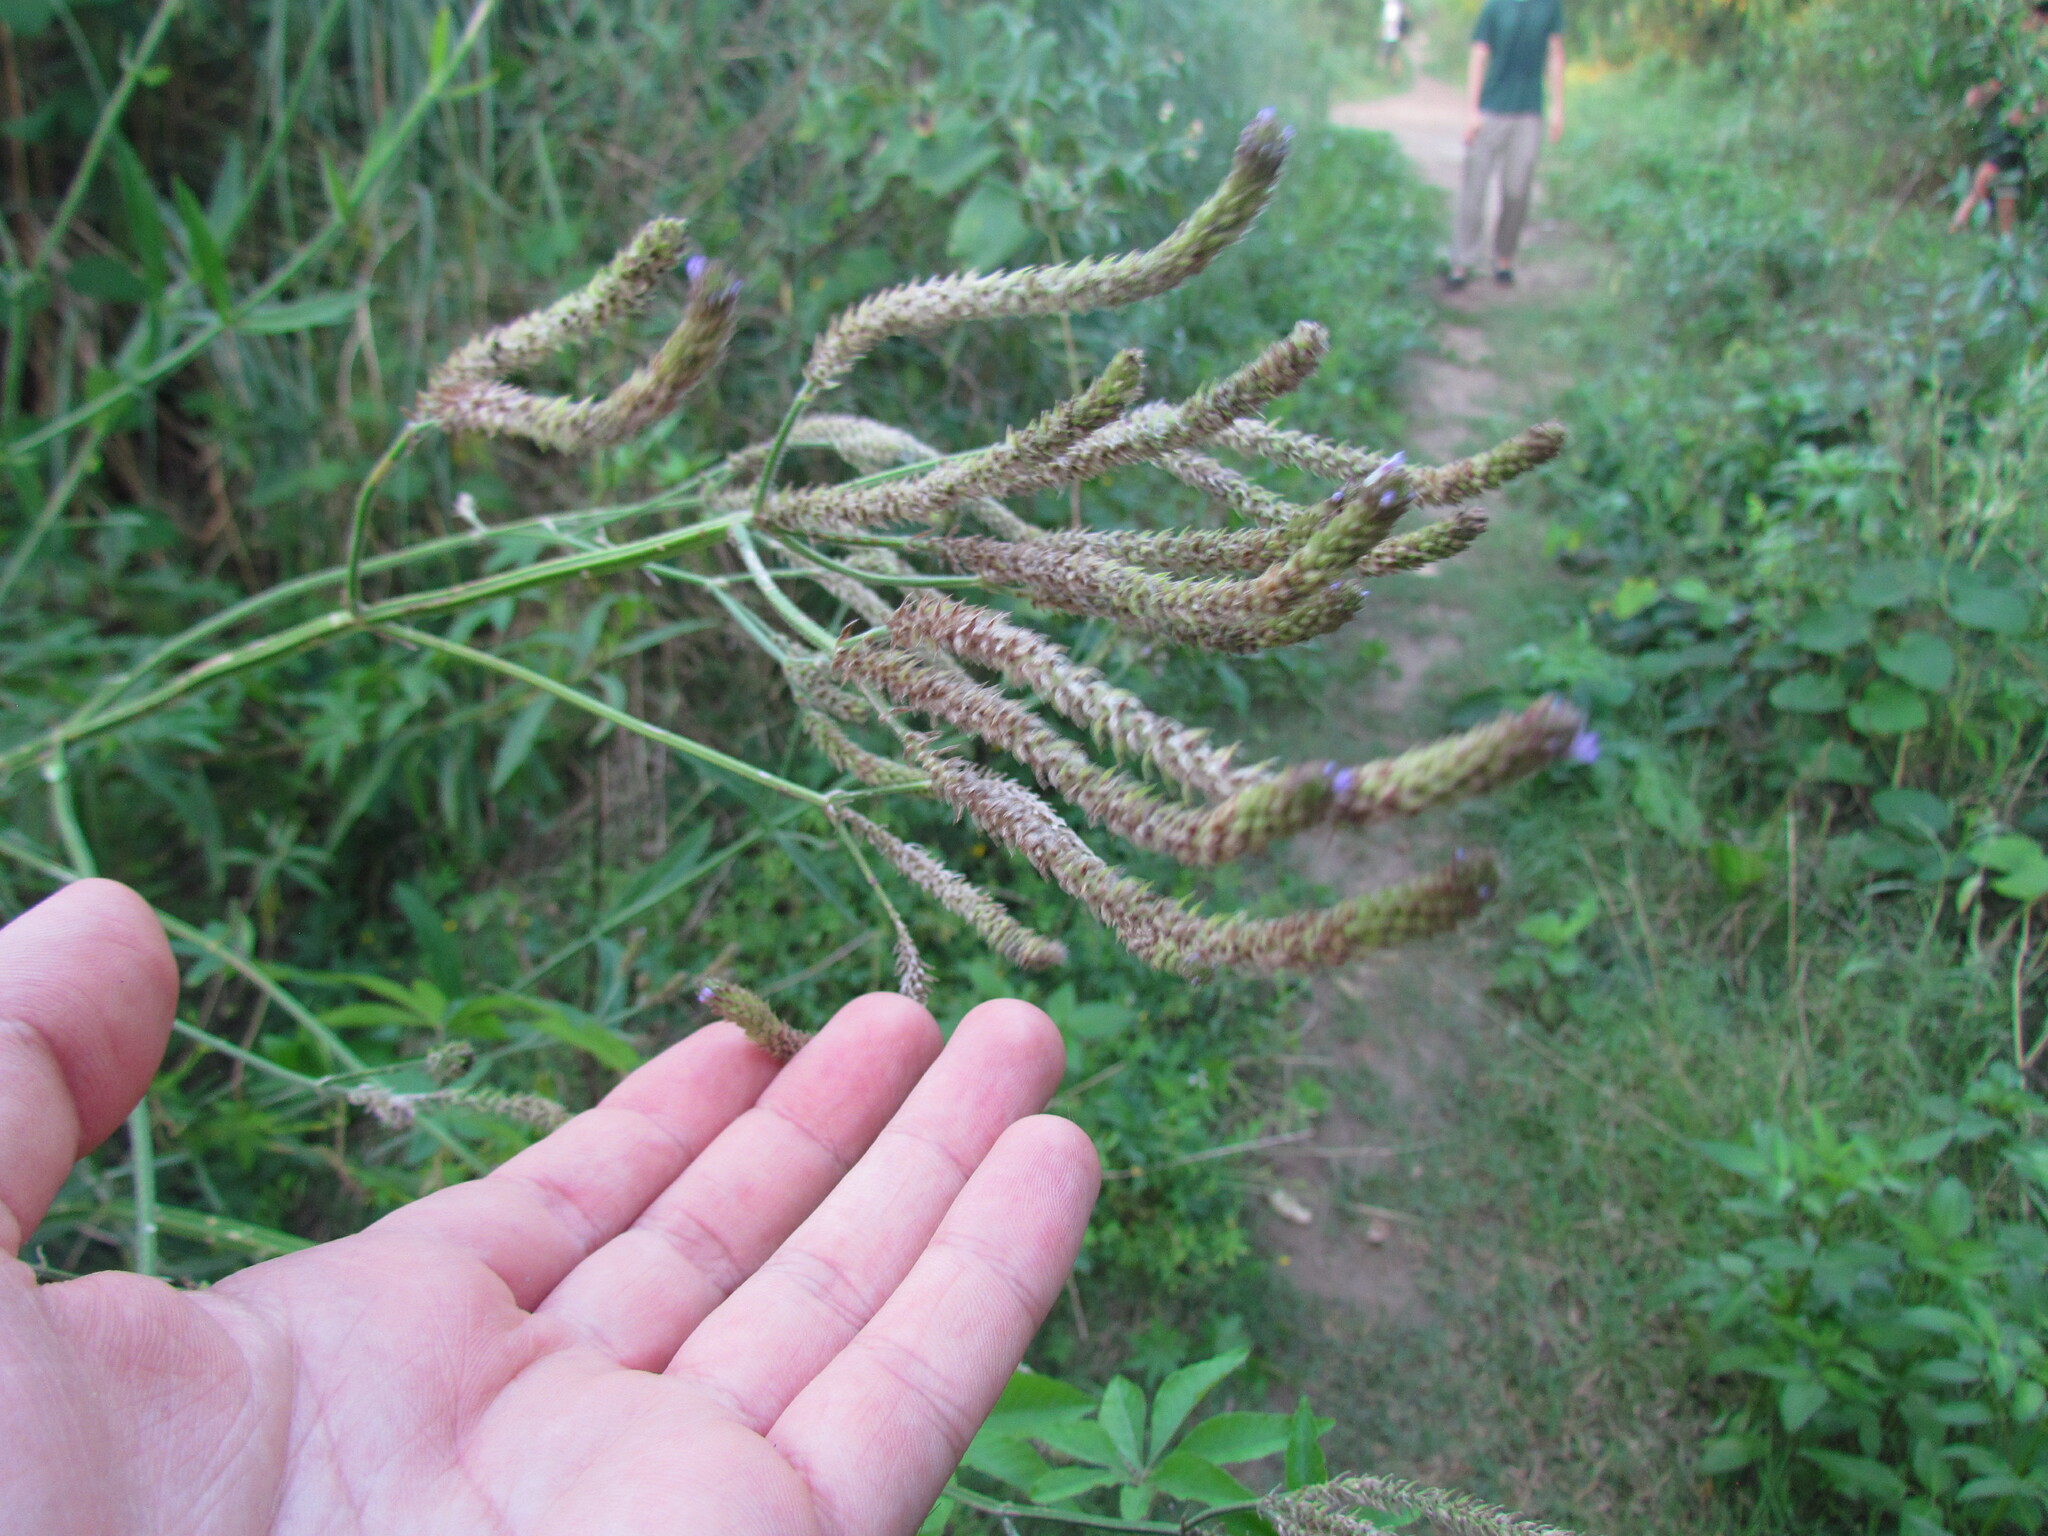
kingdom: Plantae
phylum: Tracheophyta
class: Magnoliopsida
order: Lamiales
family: Verbenaceae
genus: Verbena
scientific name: Verbena litoralis
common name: Seashore vervain
